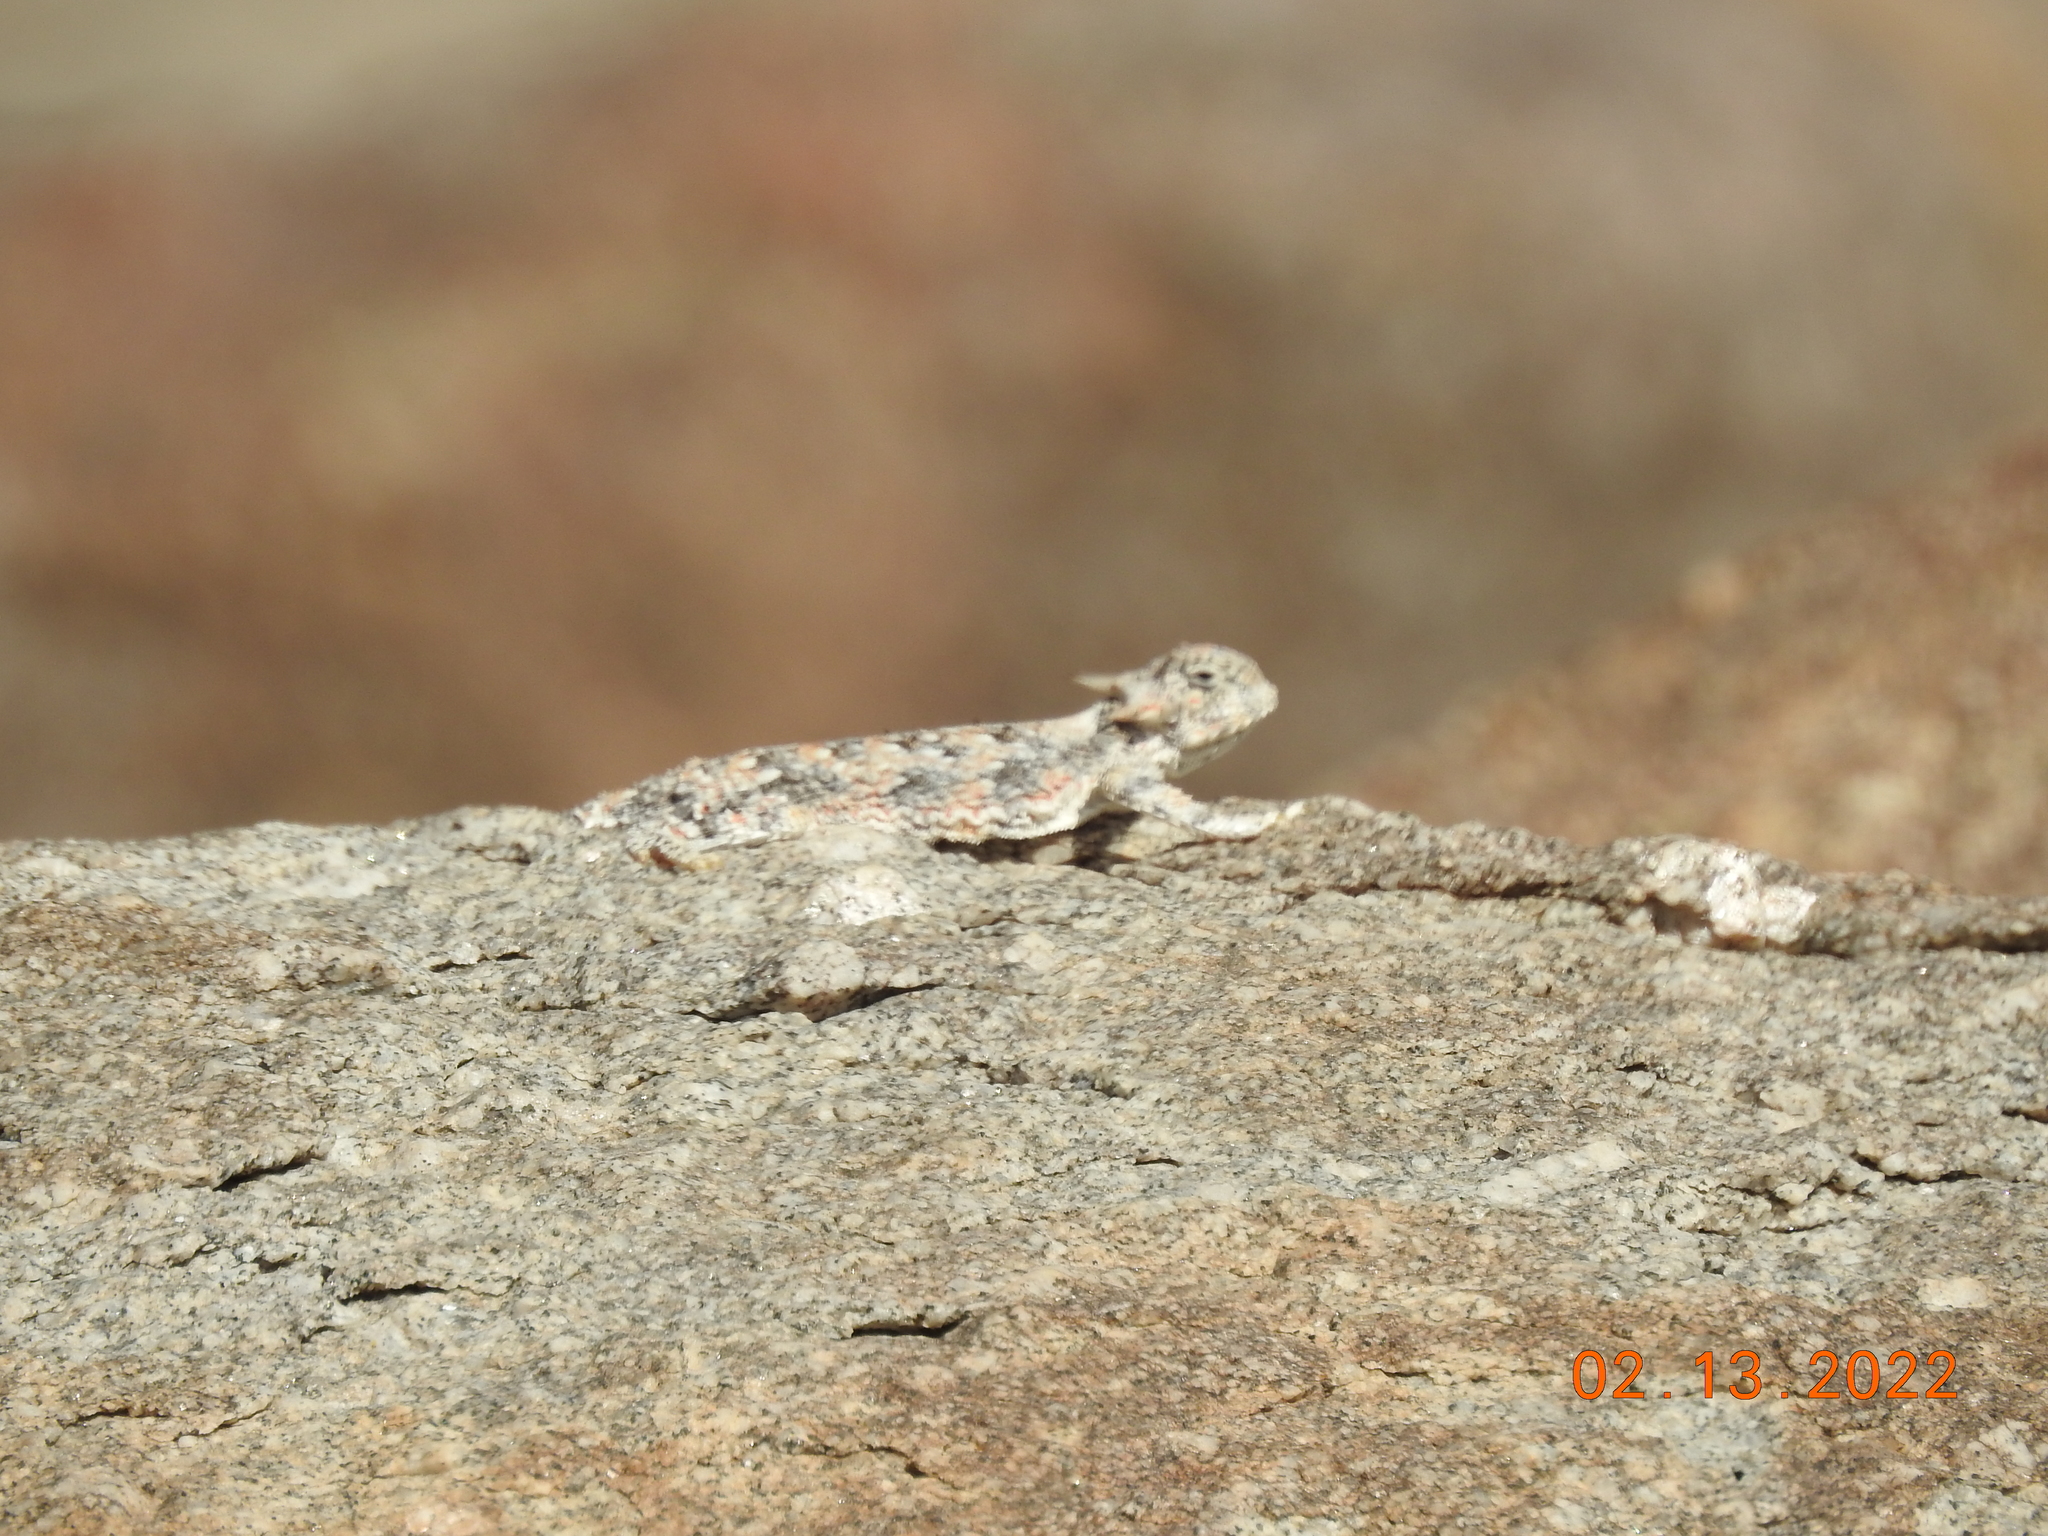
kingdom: Animalia
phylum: Chordata
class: Squamata
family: Phrynosomatidae
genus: Phrynosoma
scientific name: Phrynosoma platyrhinos
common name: Desert horned lizard
